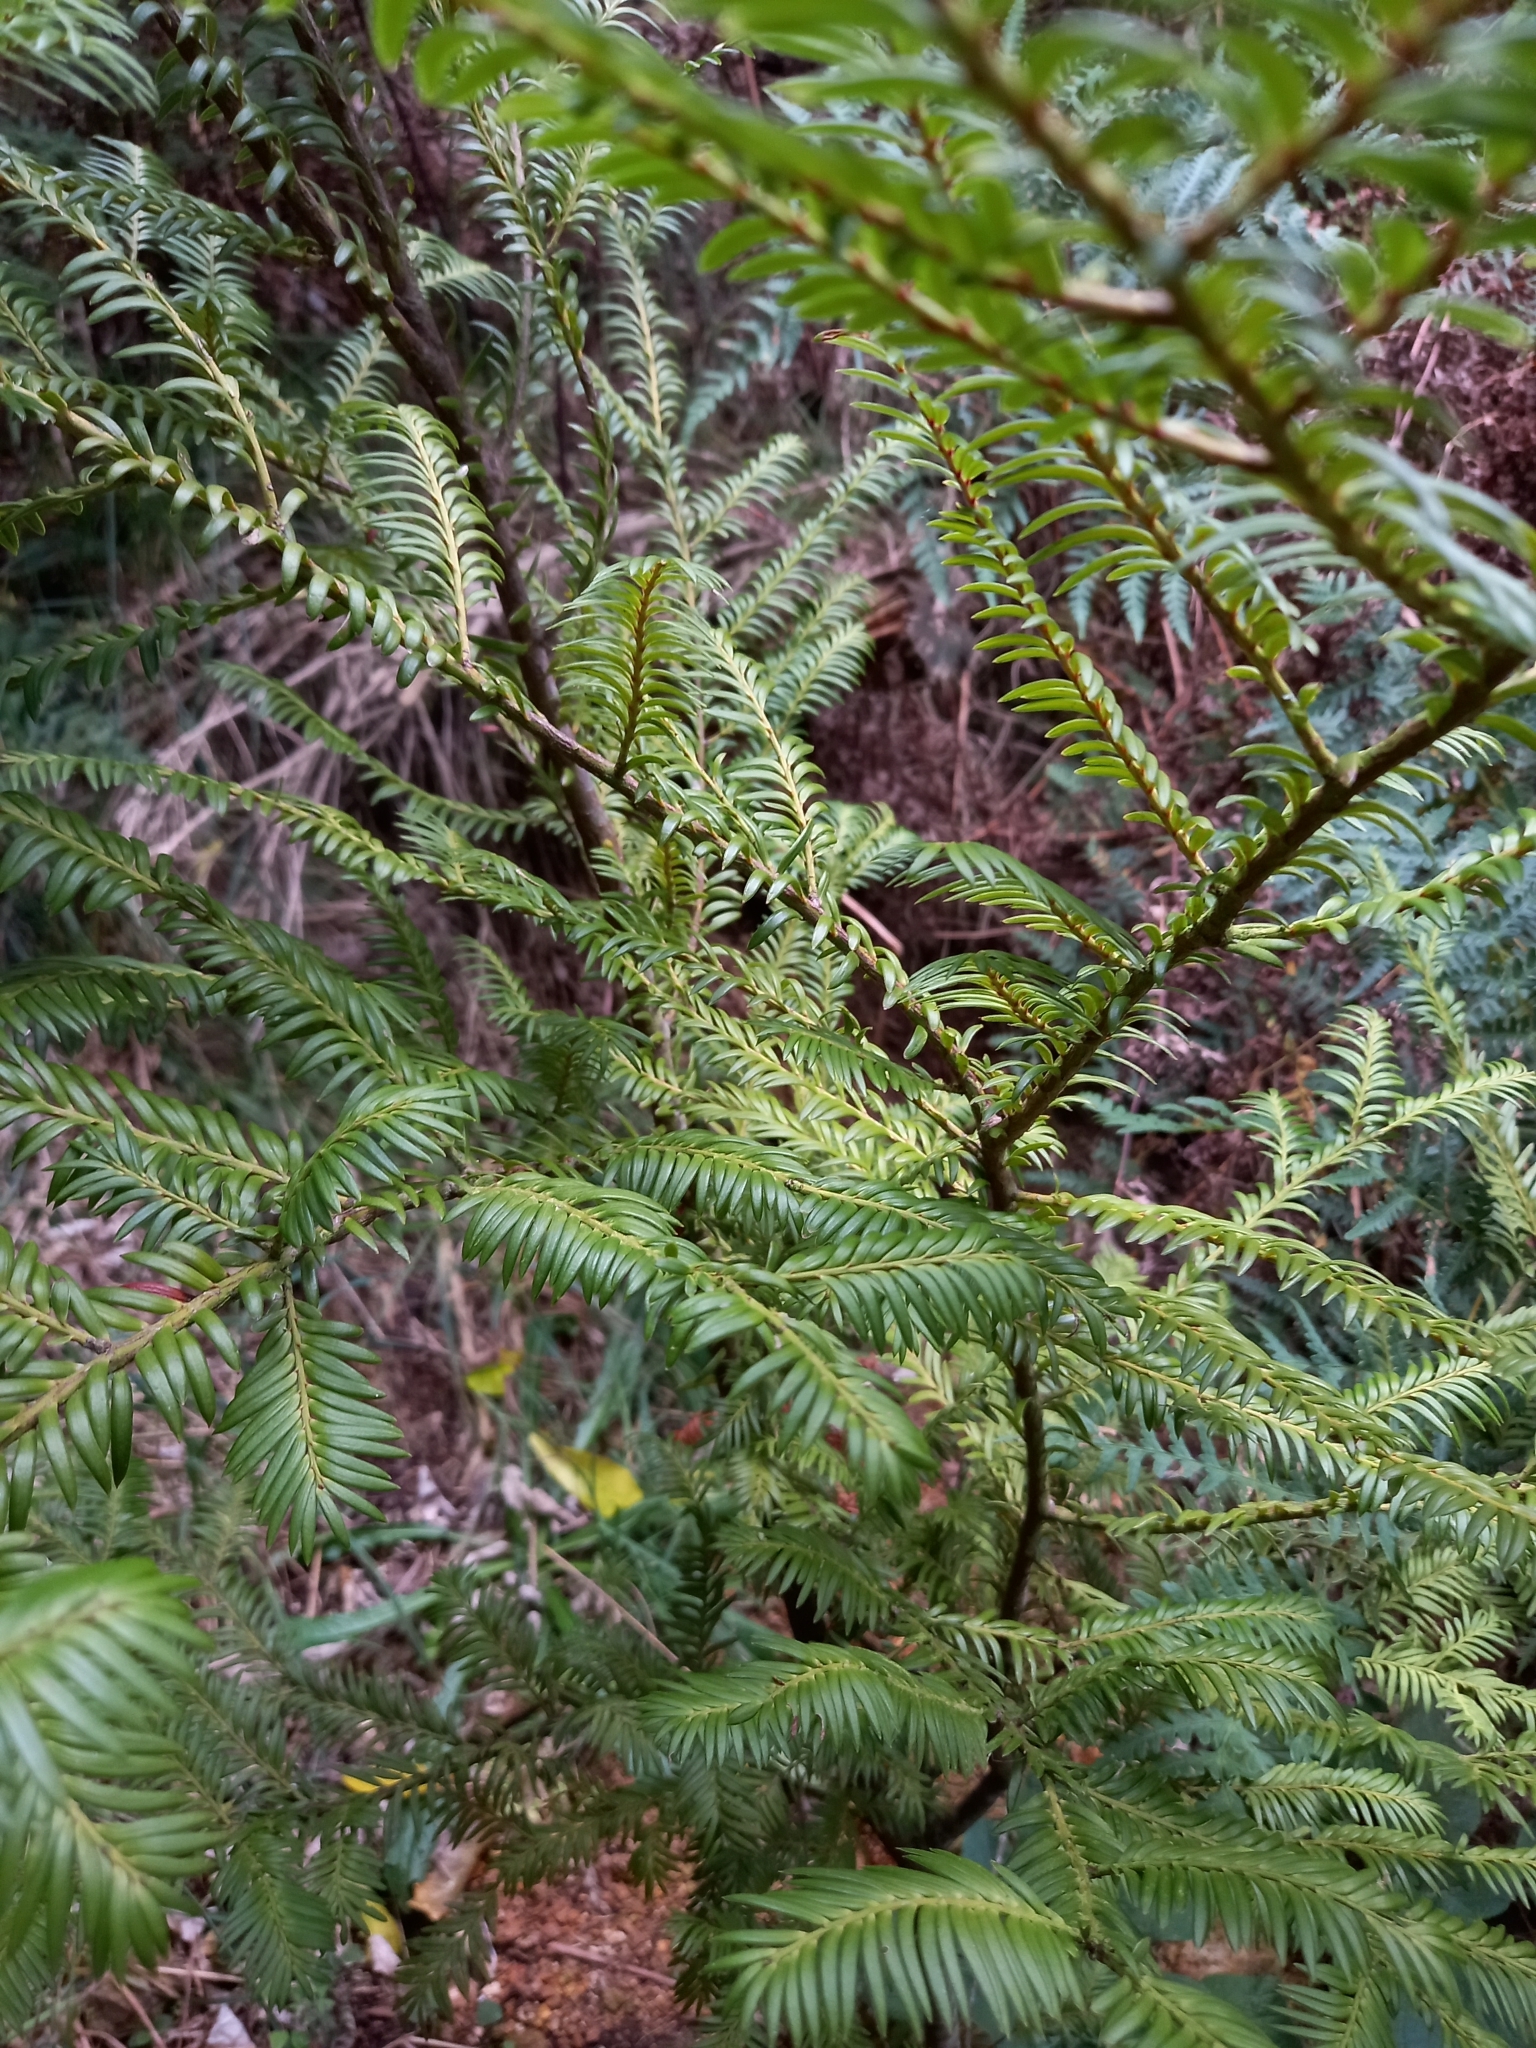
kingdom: Plantae
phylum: Tracheophyta
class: Pinopsida
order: Pinales
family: Podocarpaceae
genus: Prumnopitys
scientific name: Prumnopitys ferruginea
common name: Brown pine
